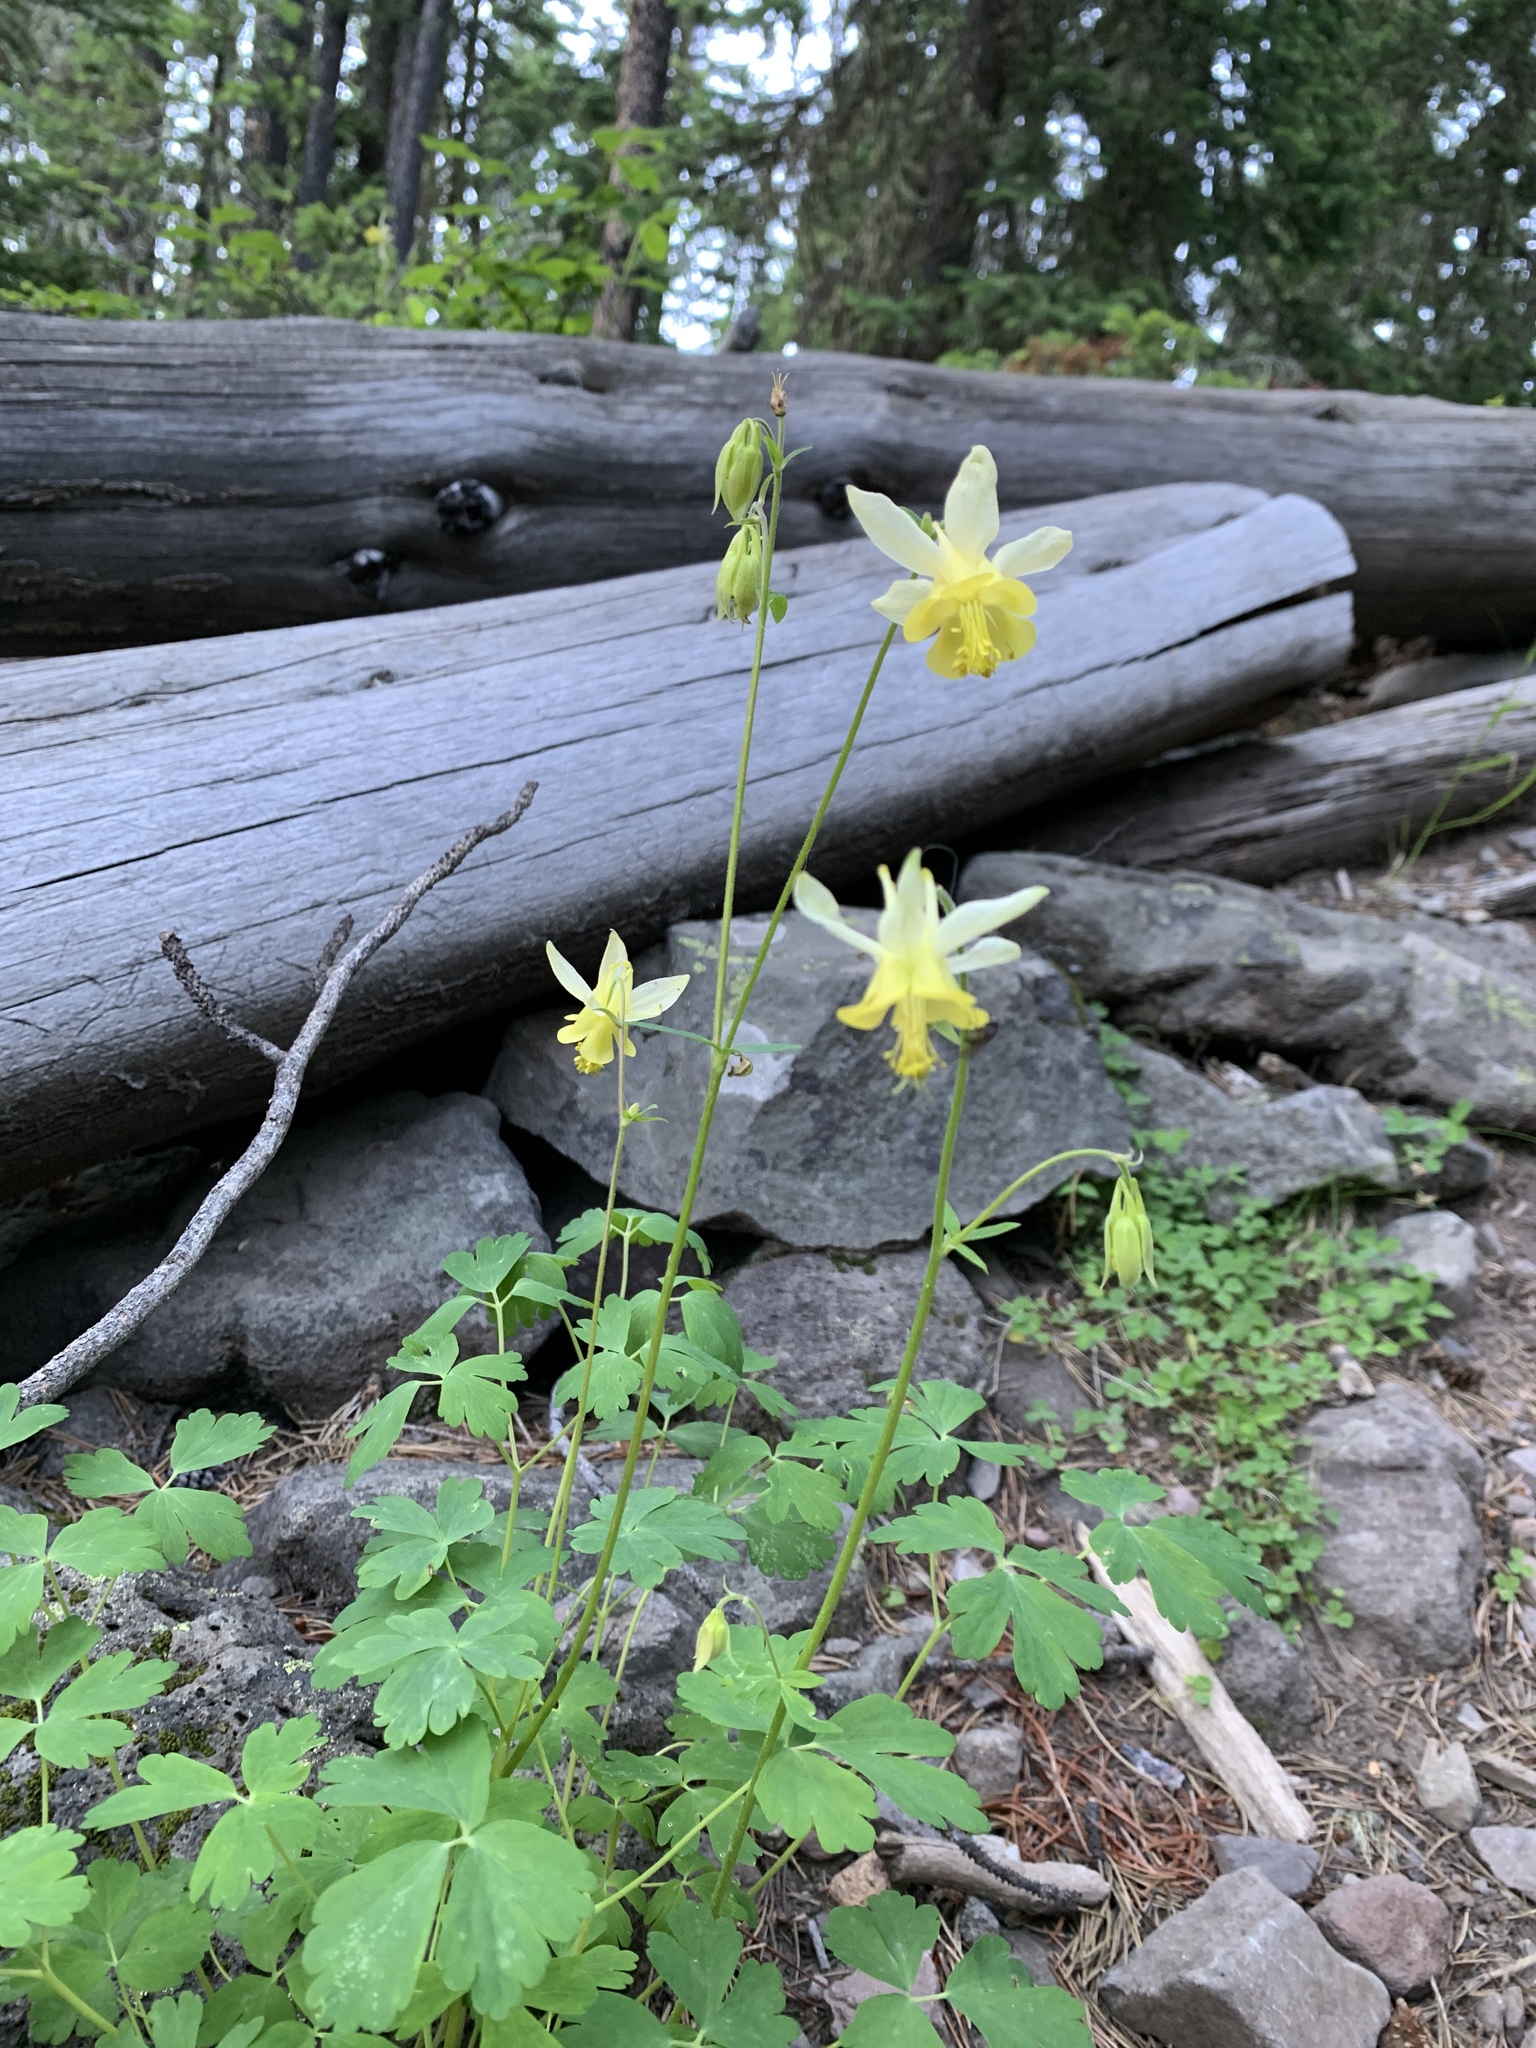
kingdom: Plantae
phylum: Tracheophyta
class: Magnoliopsida
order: Ranunculales
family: Ranunculaceae
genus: Aquilegia
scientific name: Aquilegia flavescens
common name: Yellow columbine
